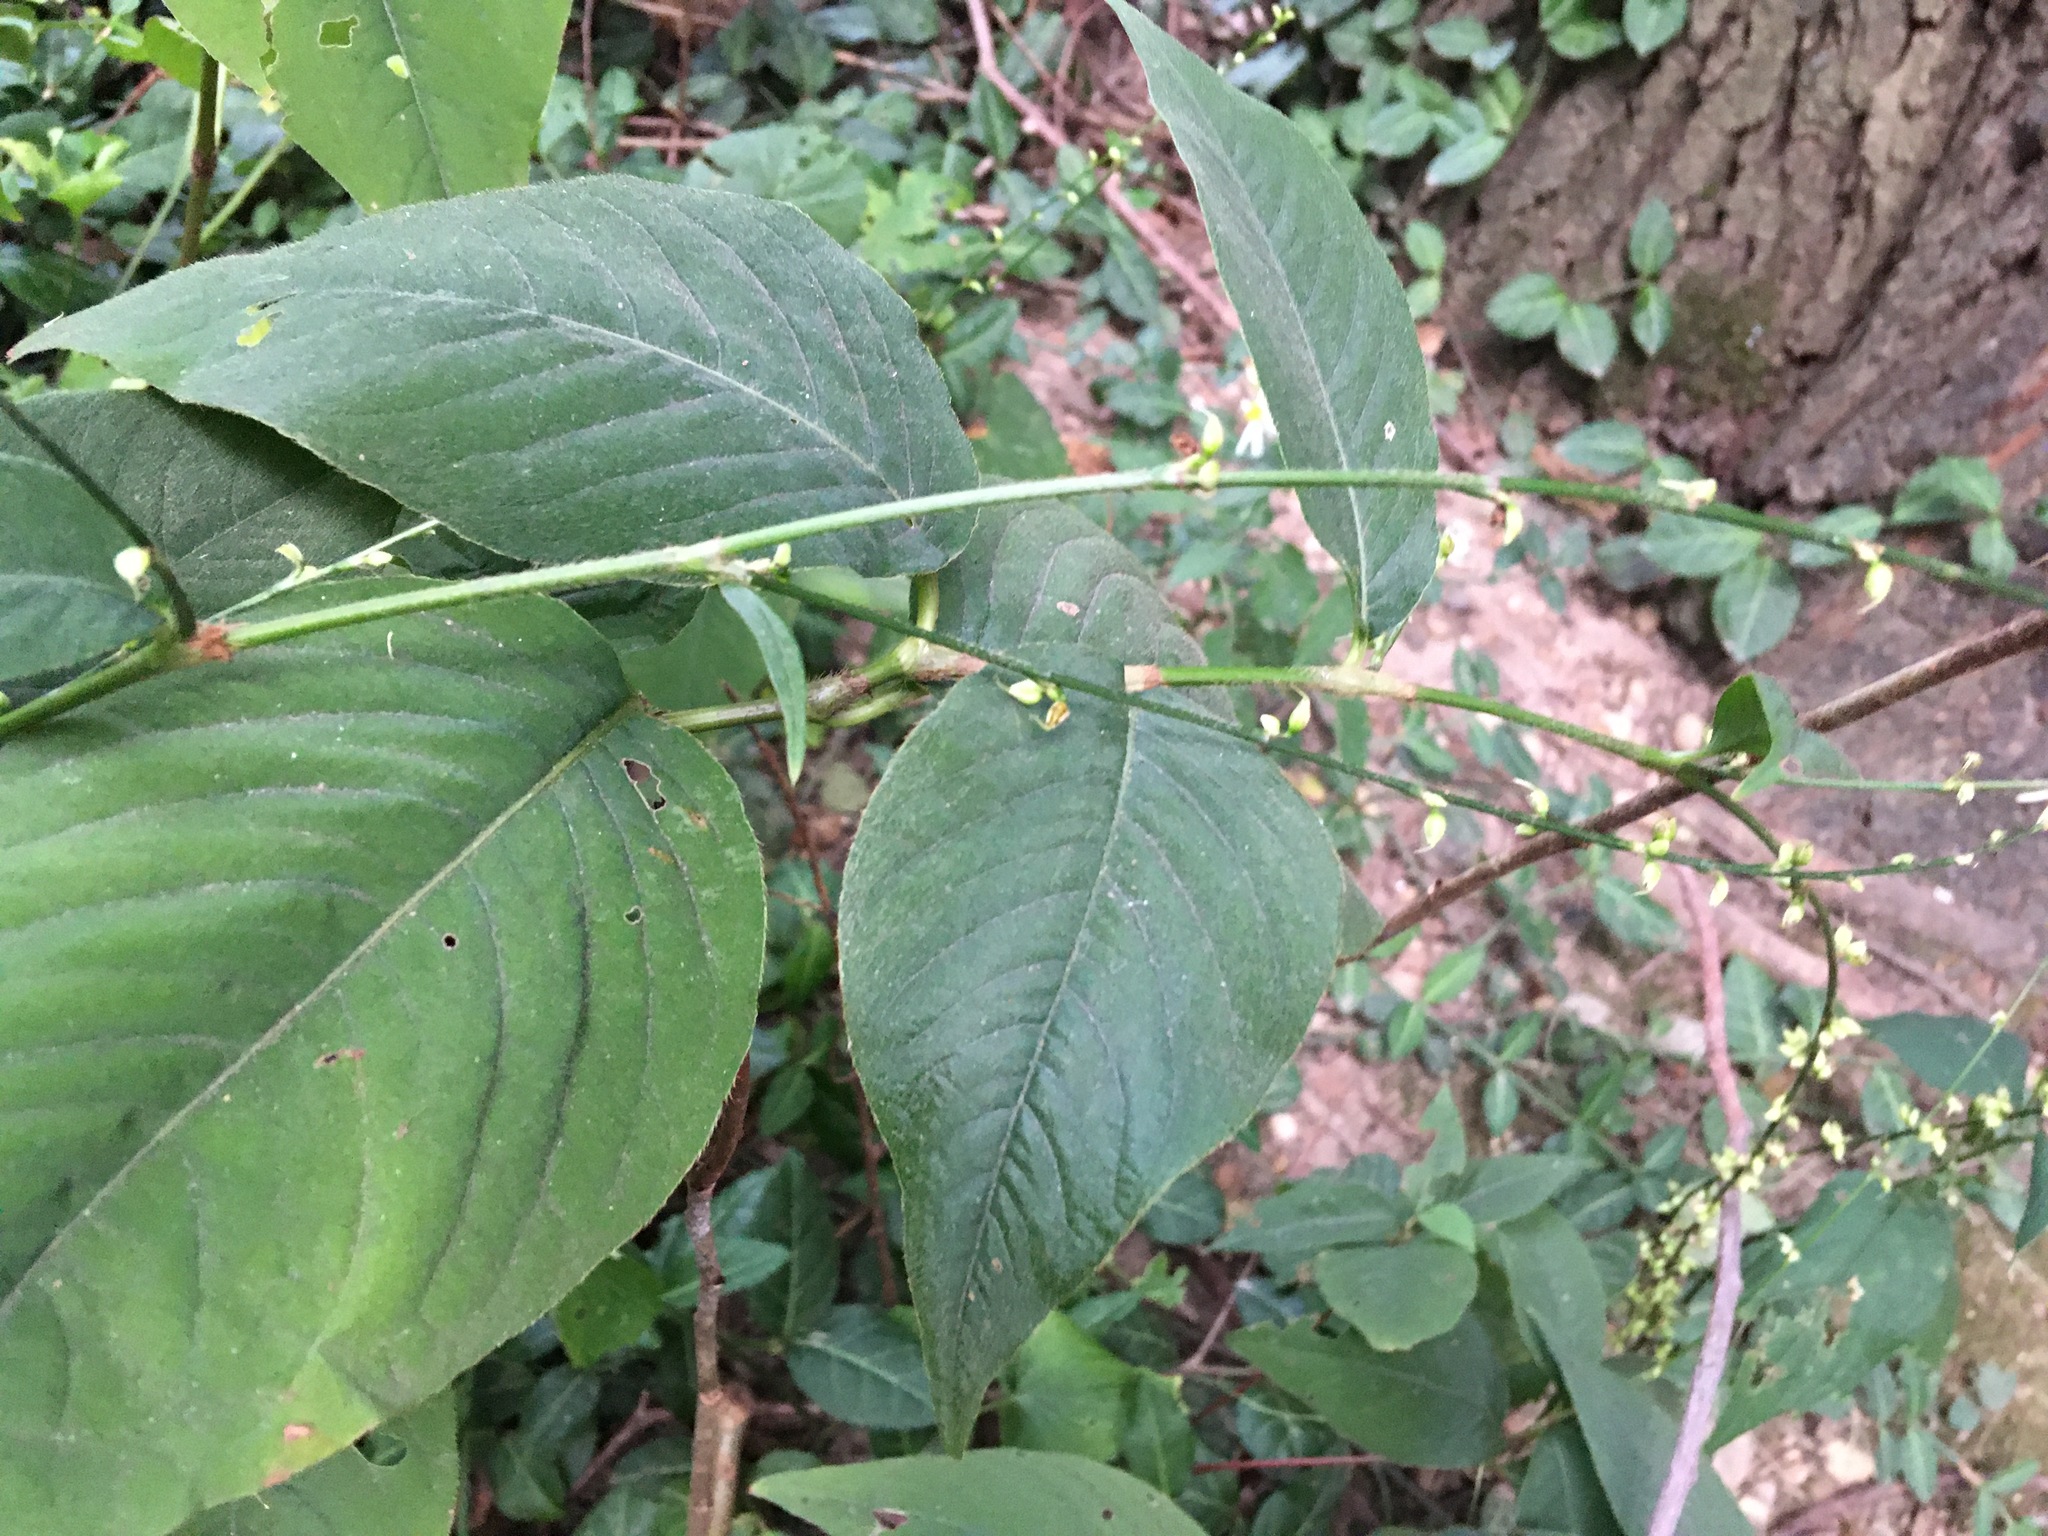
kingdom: Plantae
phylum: Tracheophyta
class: Magnoliopsida
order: Caryophyllales
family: Polygonaceae
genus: Persicaria
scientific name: Persicaria virginiana
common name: Jumpseed
